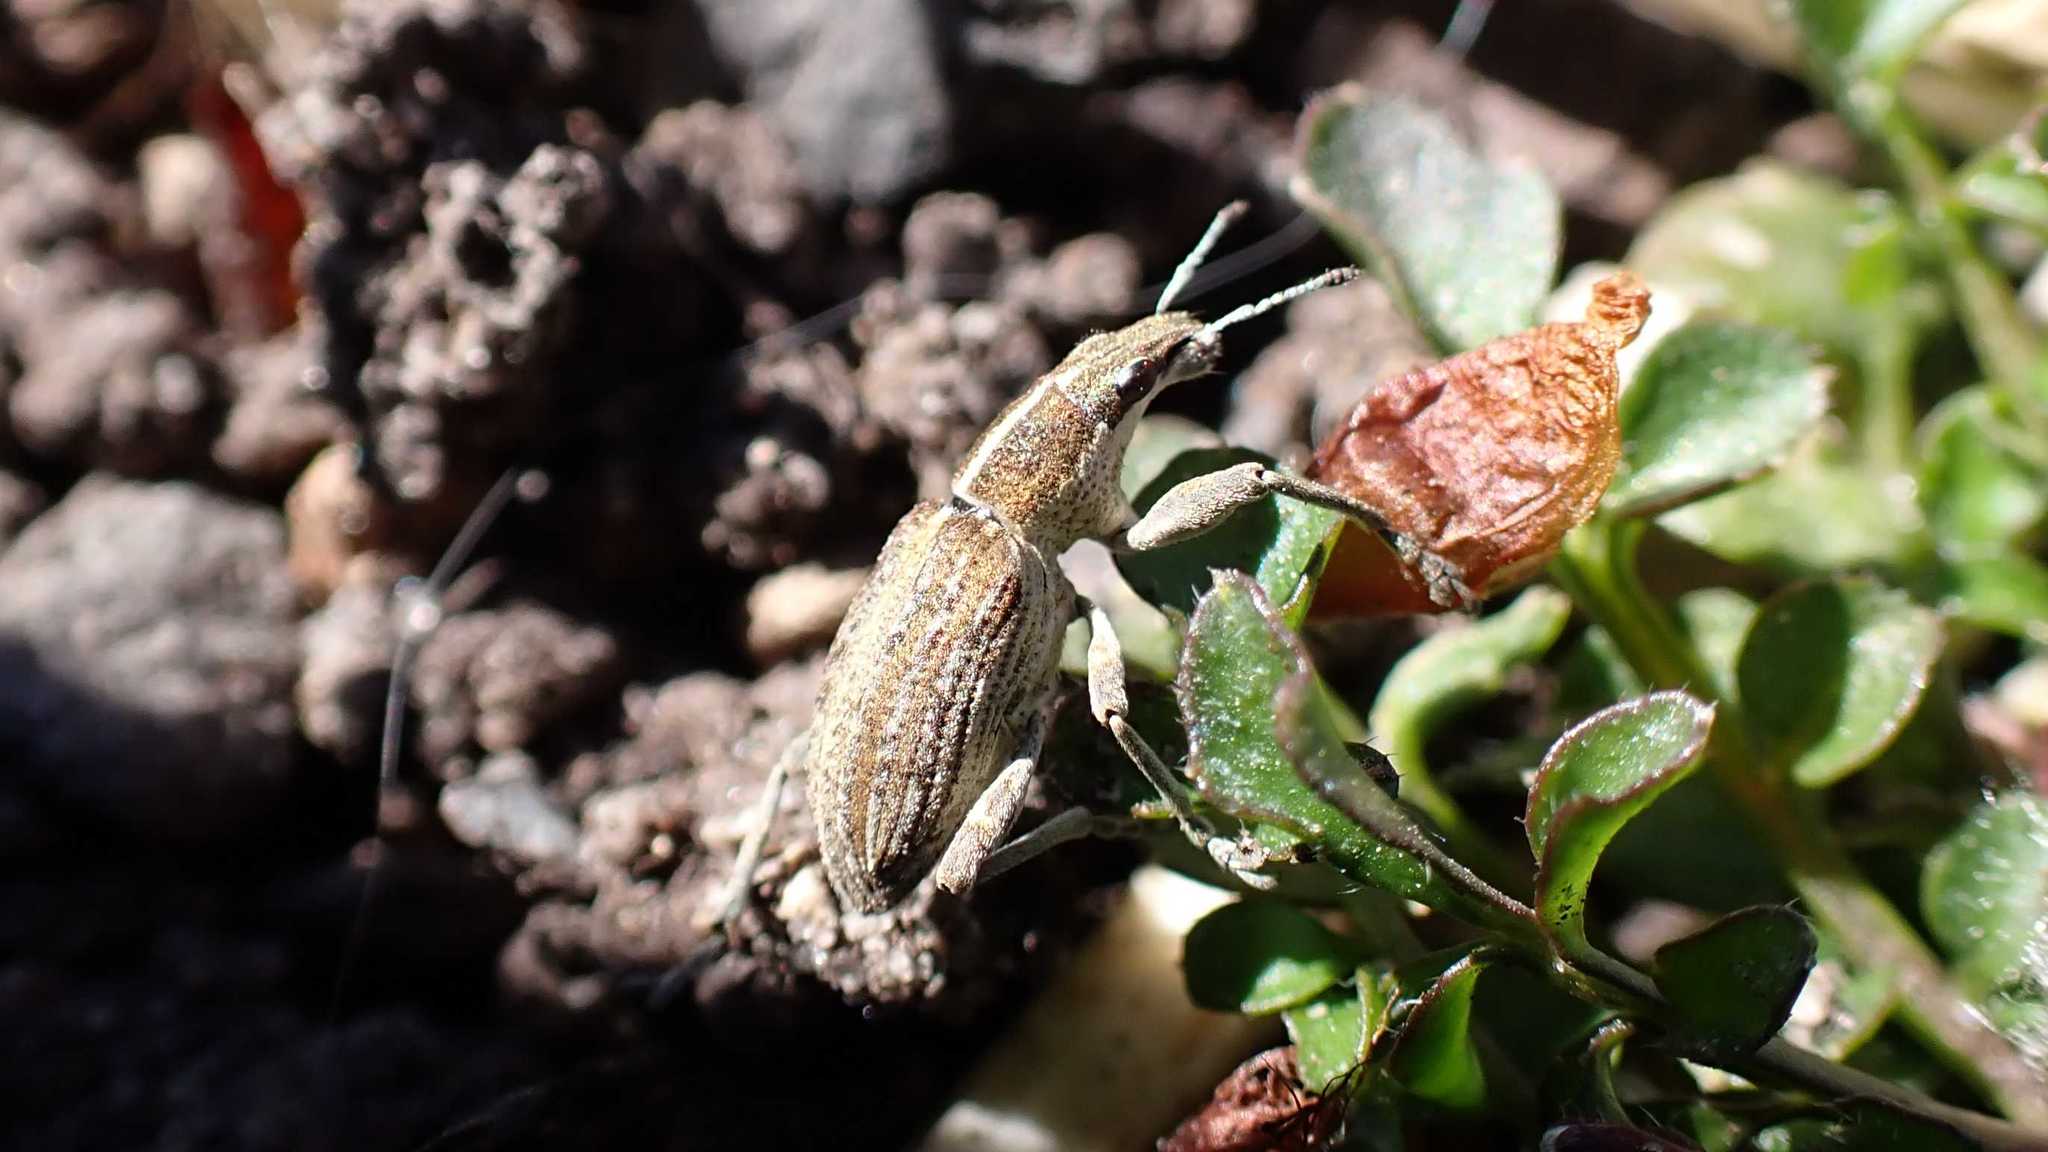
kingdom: Animalia
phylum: Arthropoda
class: Insecta
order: Coleoptera
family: Curculionidae
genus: Charagmus
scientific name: Charagmus gressorius
